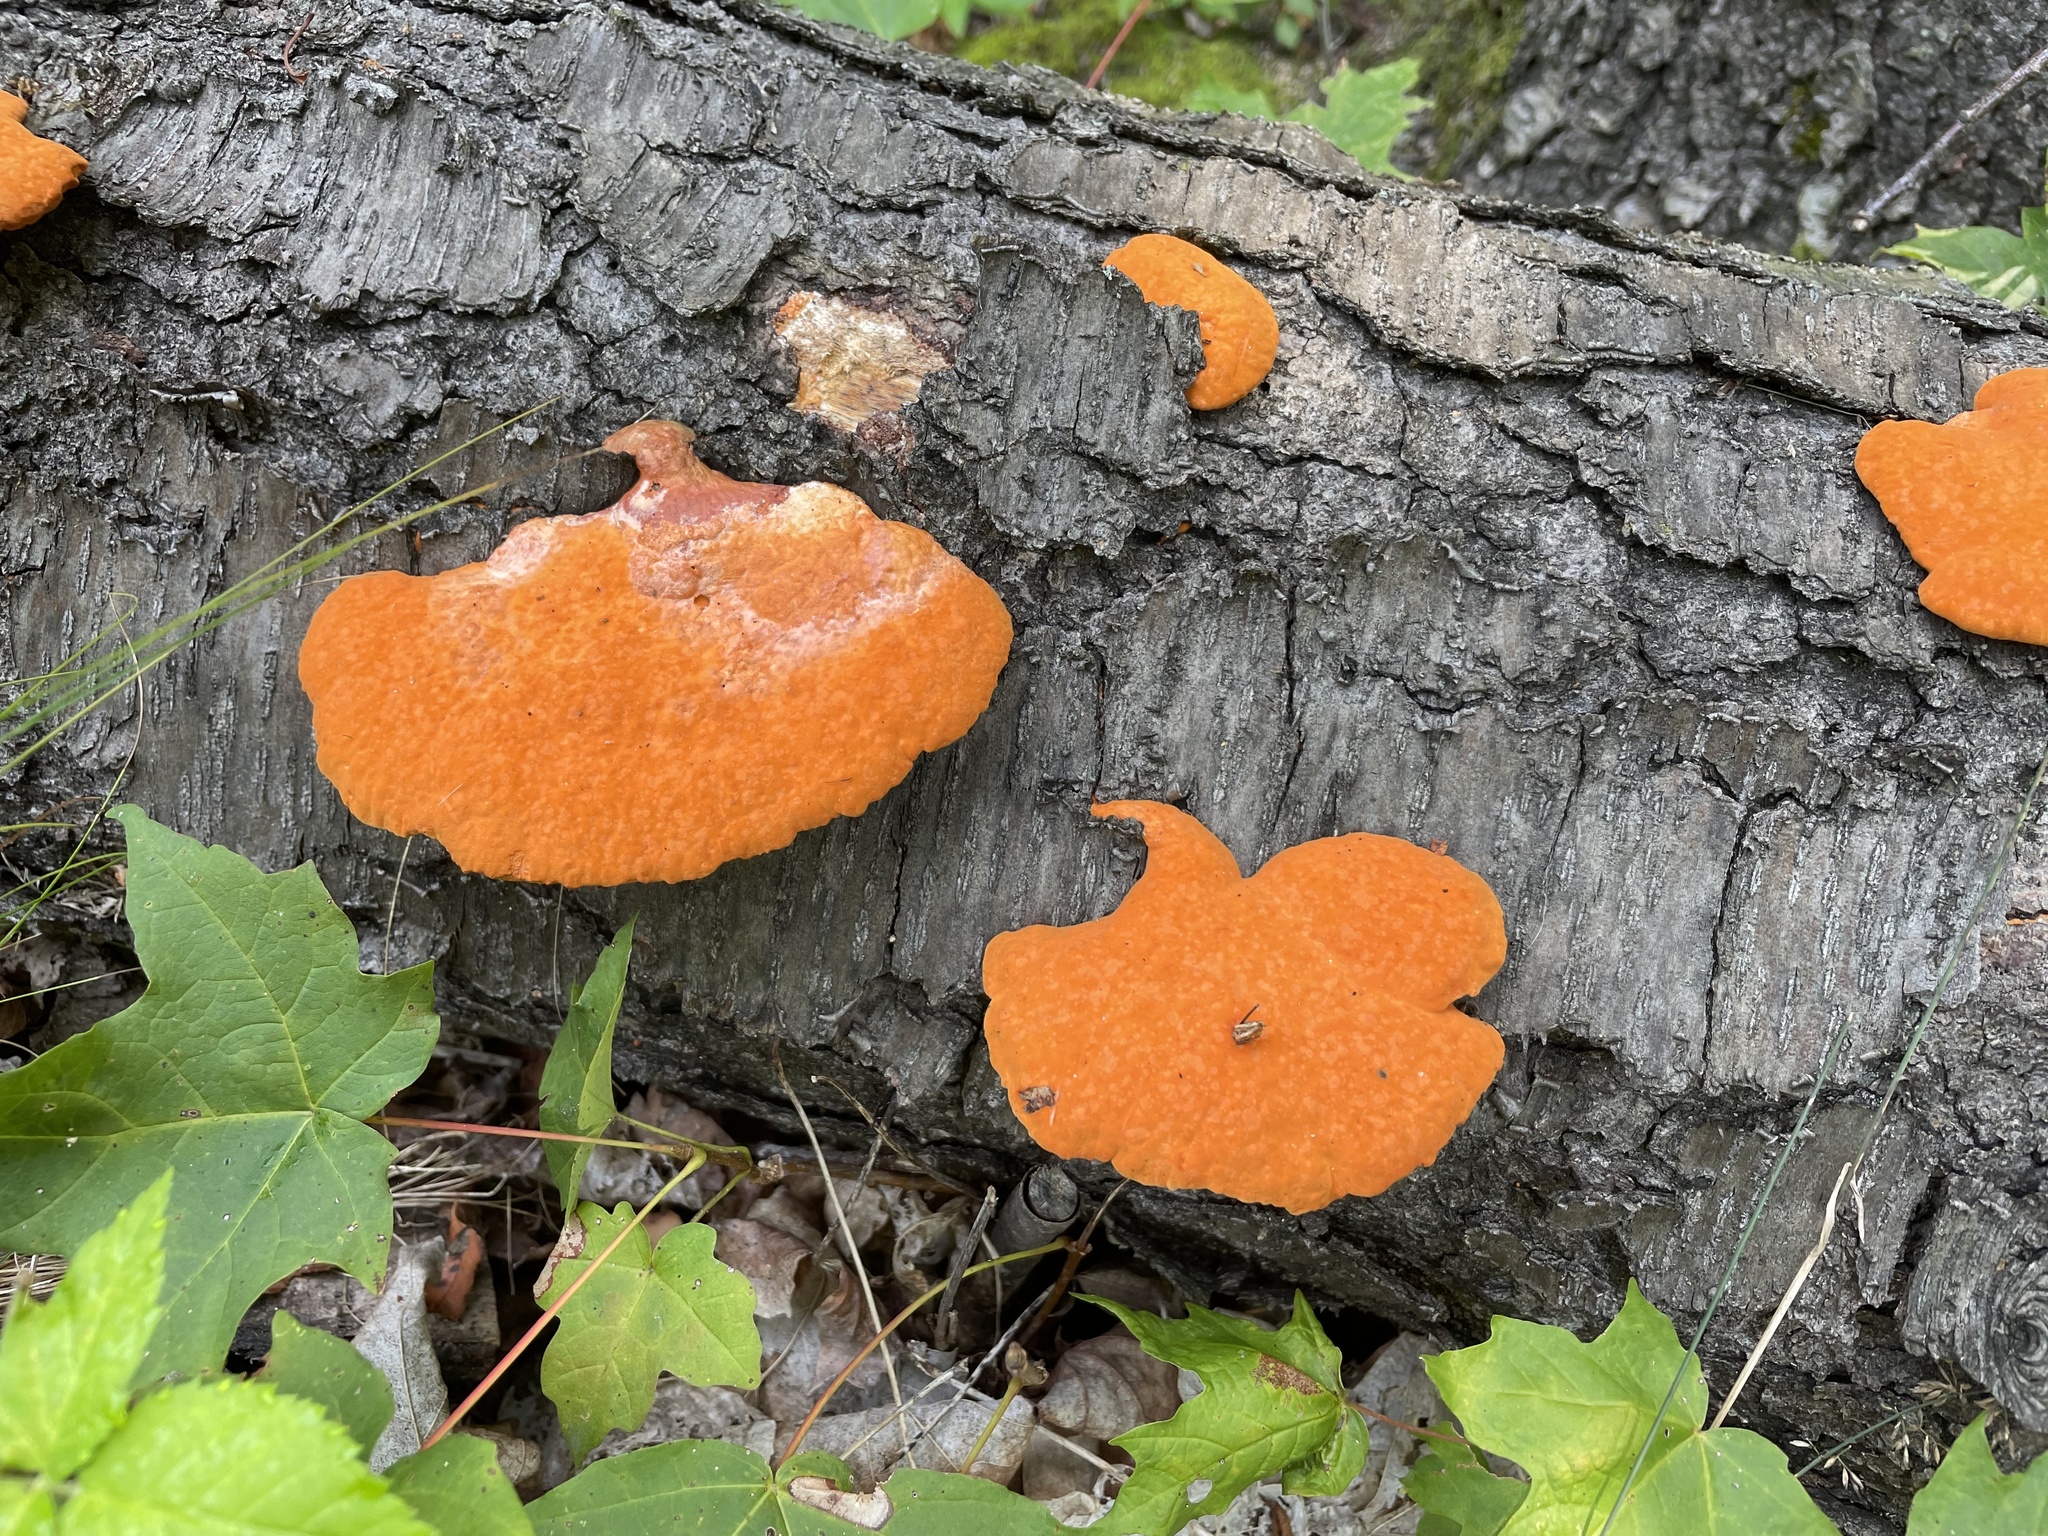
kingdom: Fungi
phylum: Basidiomycota
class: Agaricomycetes
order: Polyporales
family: Polyporaceae
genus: Trametes
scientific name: Trametes cinnabarina
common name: Northern cinnabar polypore
